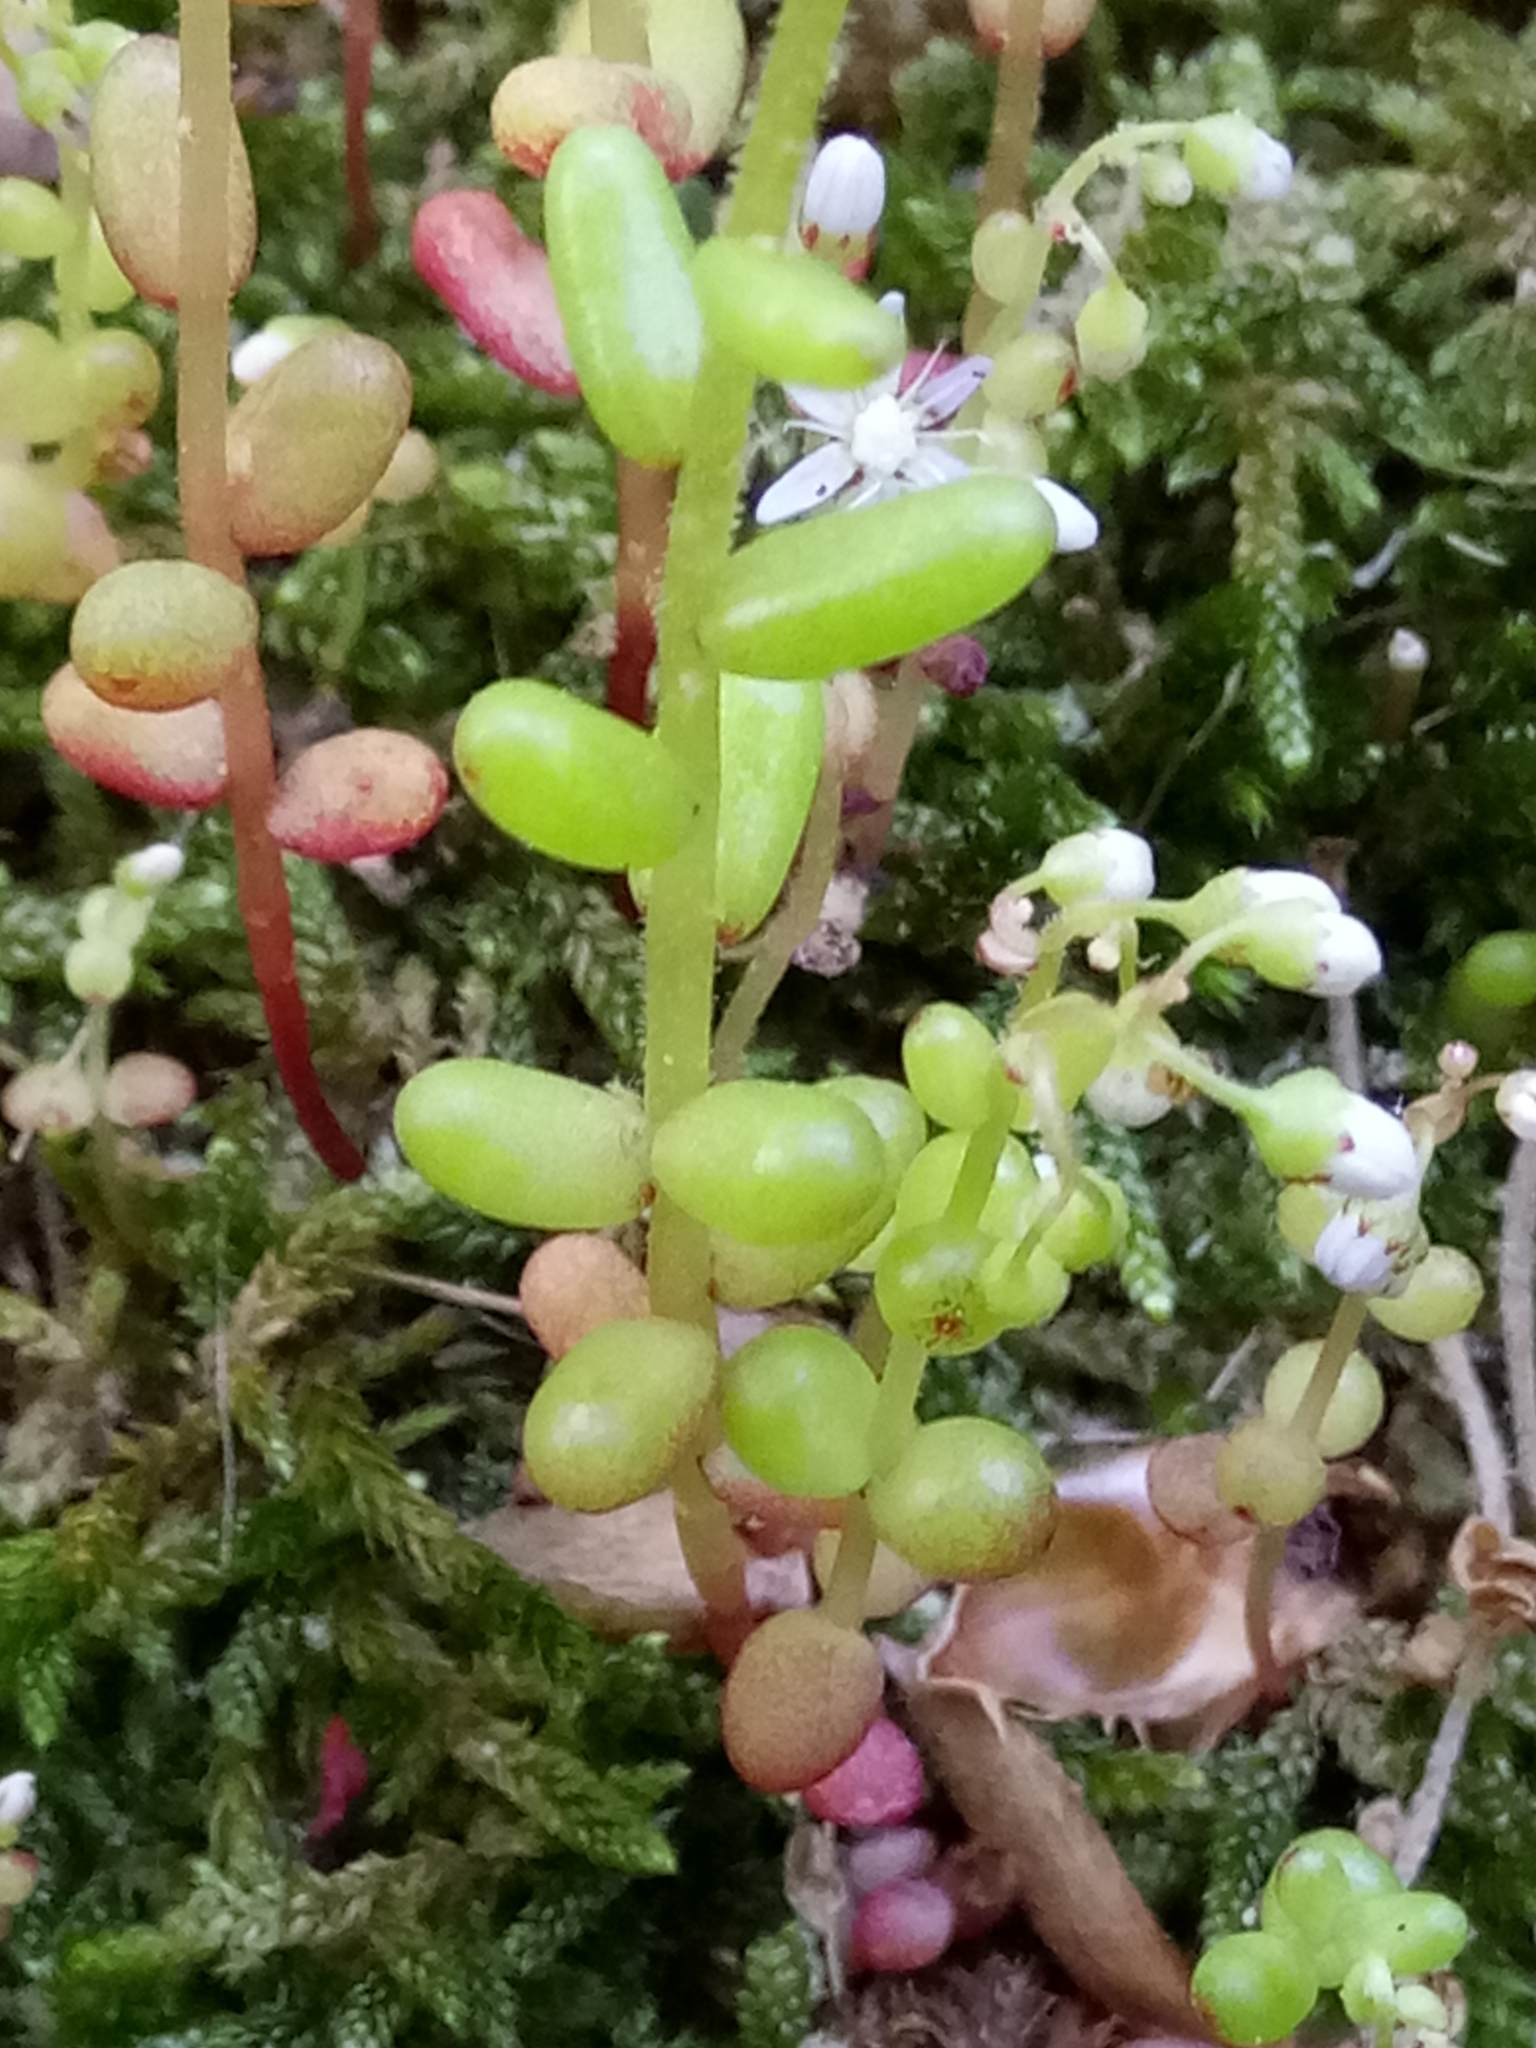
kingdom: Plantae
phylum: Tracheophyta
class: Magnoliopsida
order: Saxifragales
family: Crassulaceae
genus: Sedum
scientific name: Sedum caeruleum
